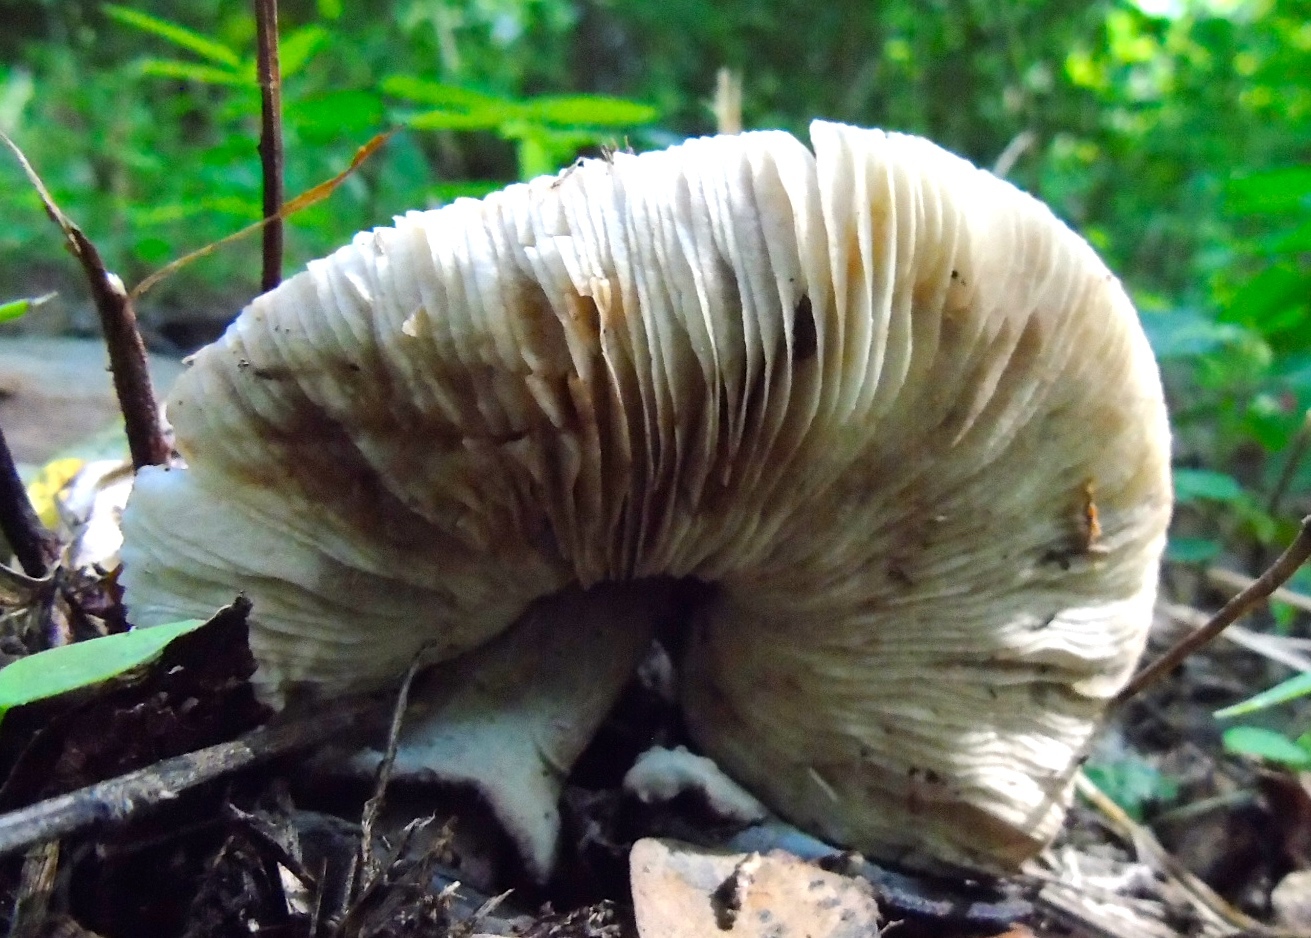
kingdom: Fungi
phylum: Basidiomycota
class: Agaricomycetes
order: Agaricales
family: Agaricaceae
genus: Leucoagaricus
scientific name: Leucoagaricus
